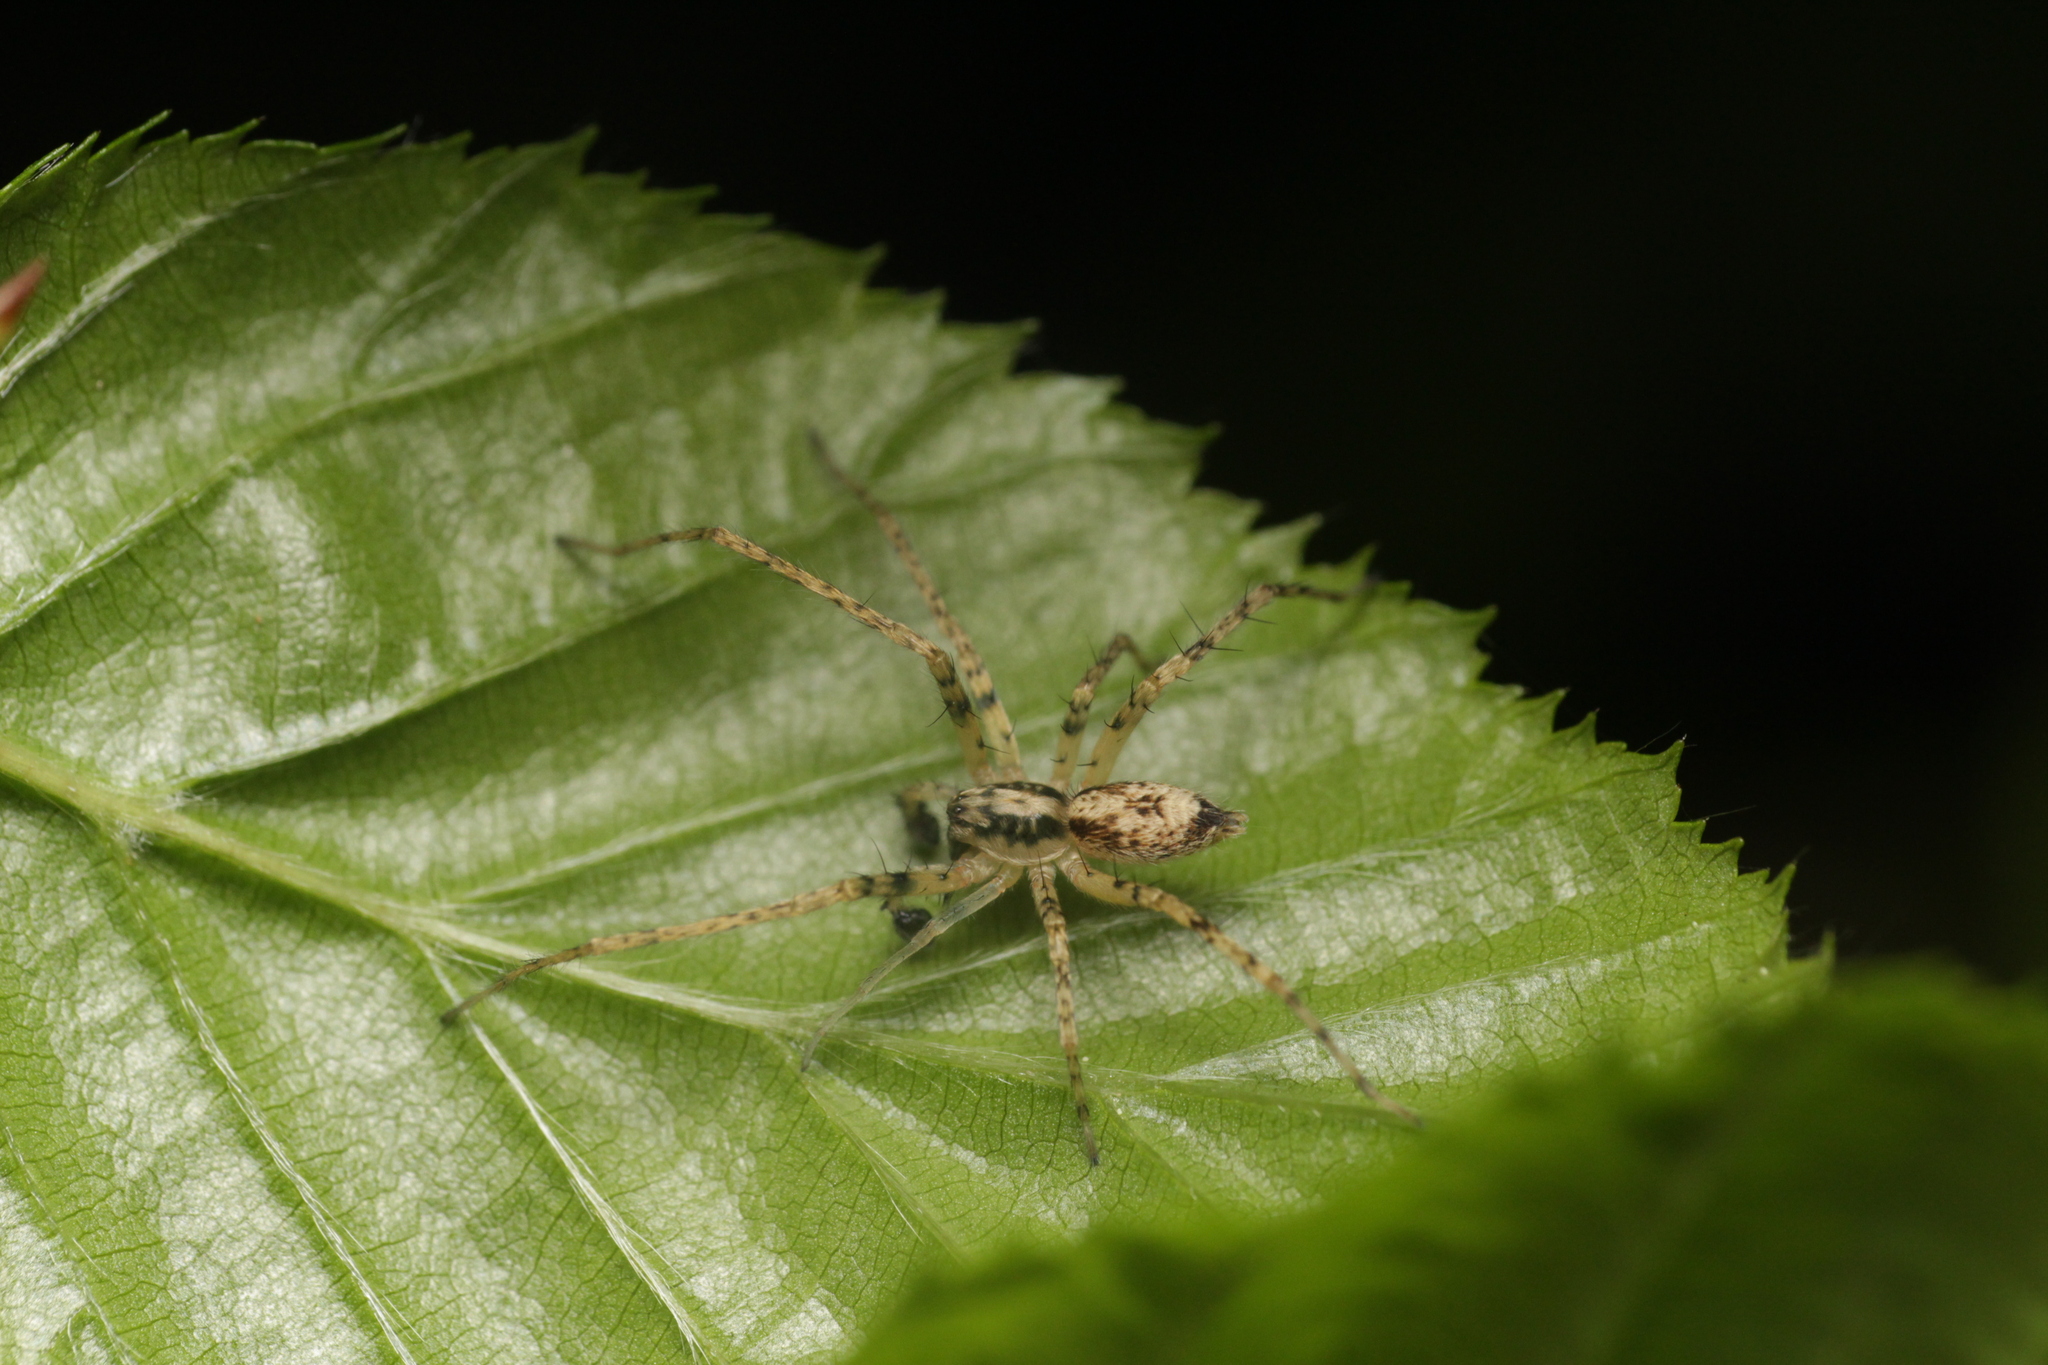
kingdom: Animalia
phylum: Arthropoda
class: Arachnida
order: Araneae
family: Anyphaenidae
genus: Anyphaena
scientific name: Anyphaena accentuata
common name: Buzzing spider
